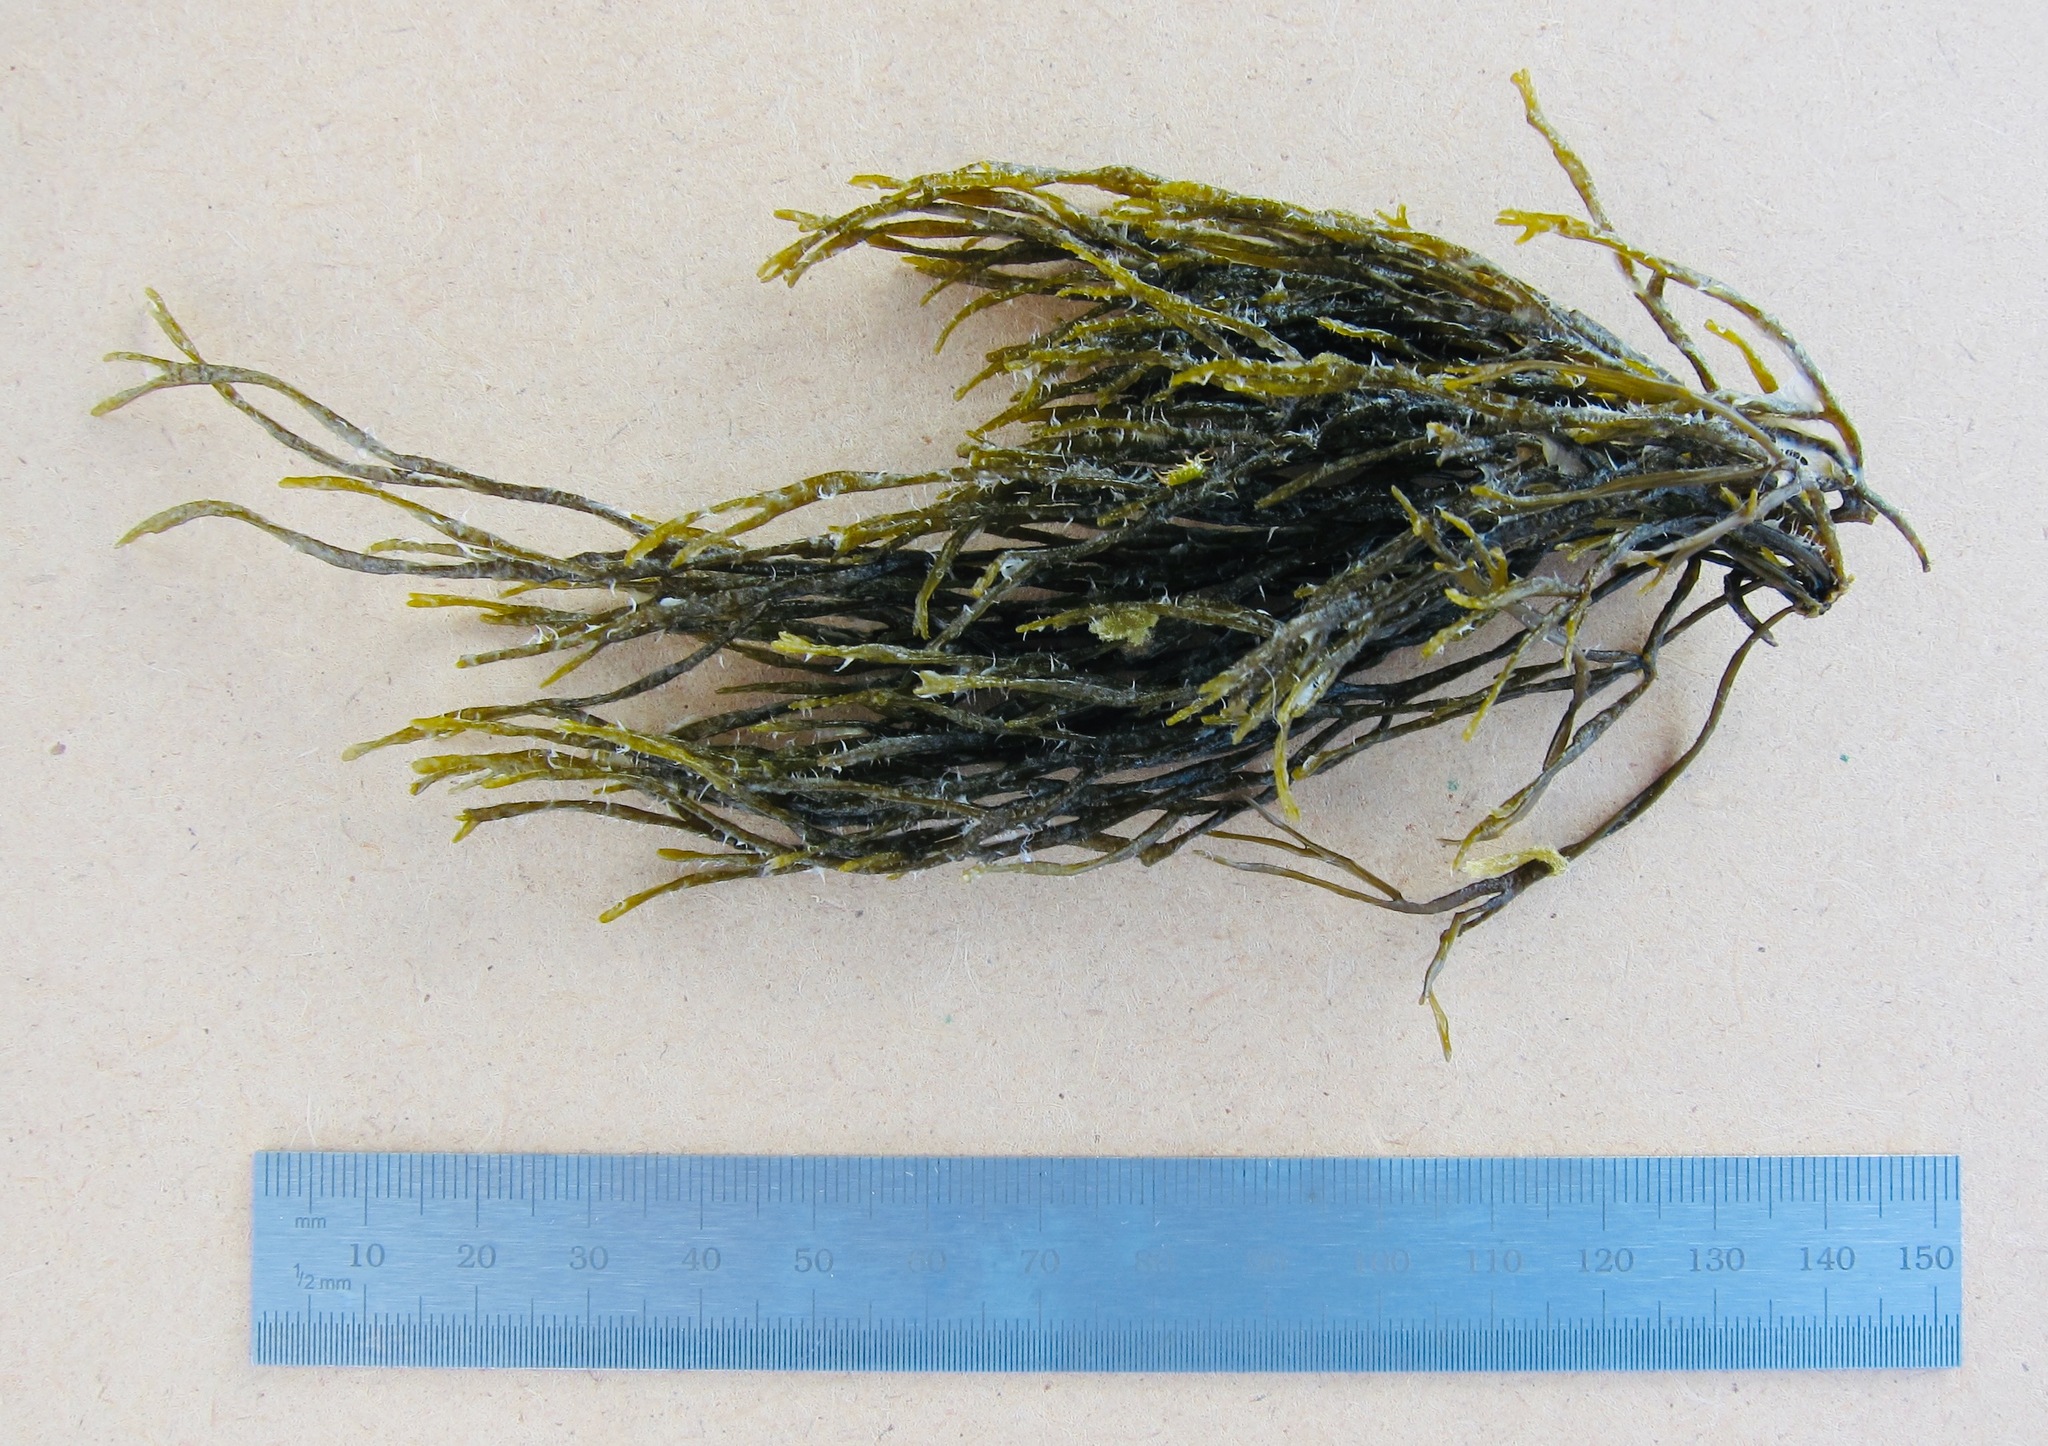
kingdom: Chromista
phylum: Ochrophyta
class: Phaeophyceae
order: Scytosiphonales
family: Scytosiphonaceae
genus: Chnoospora
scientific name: Chnoospora minima
